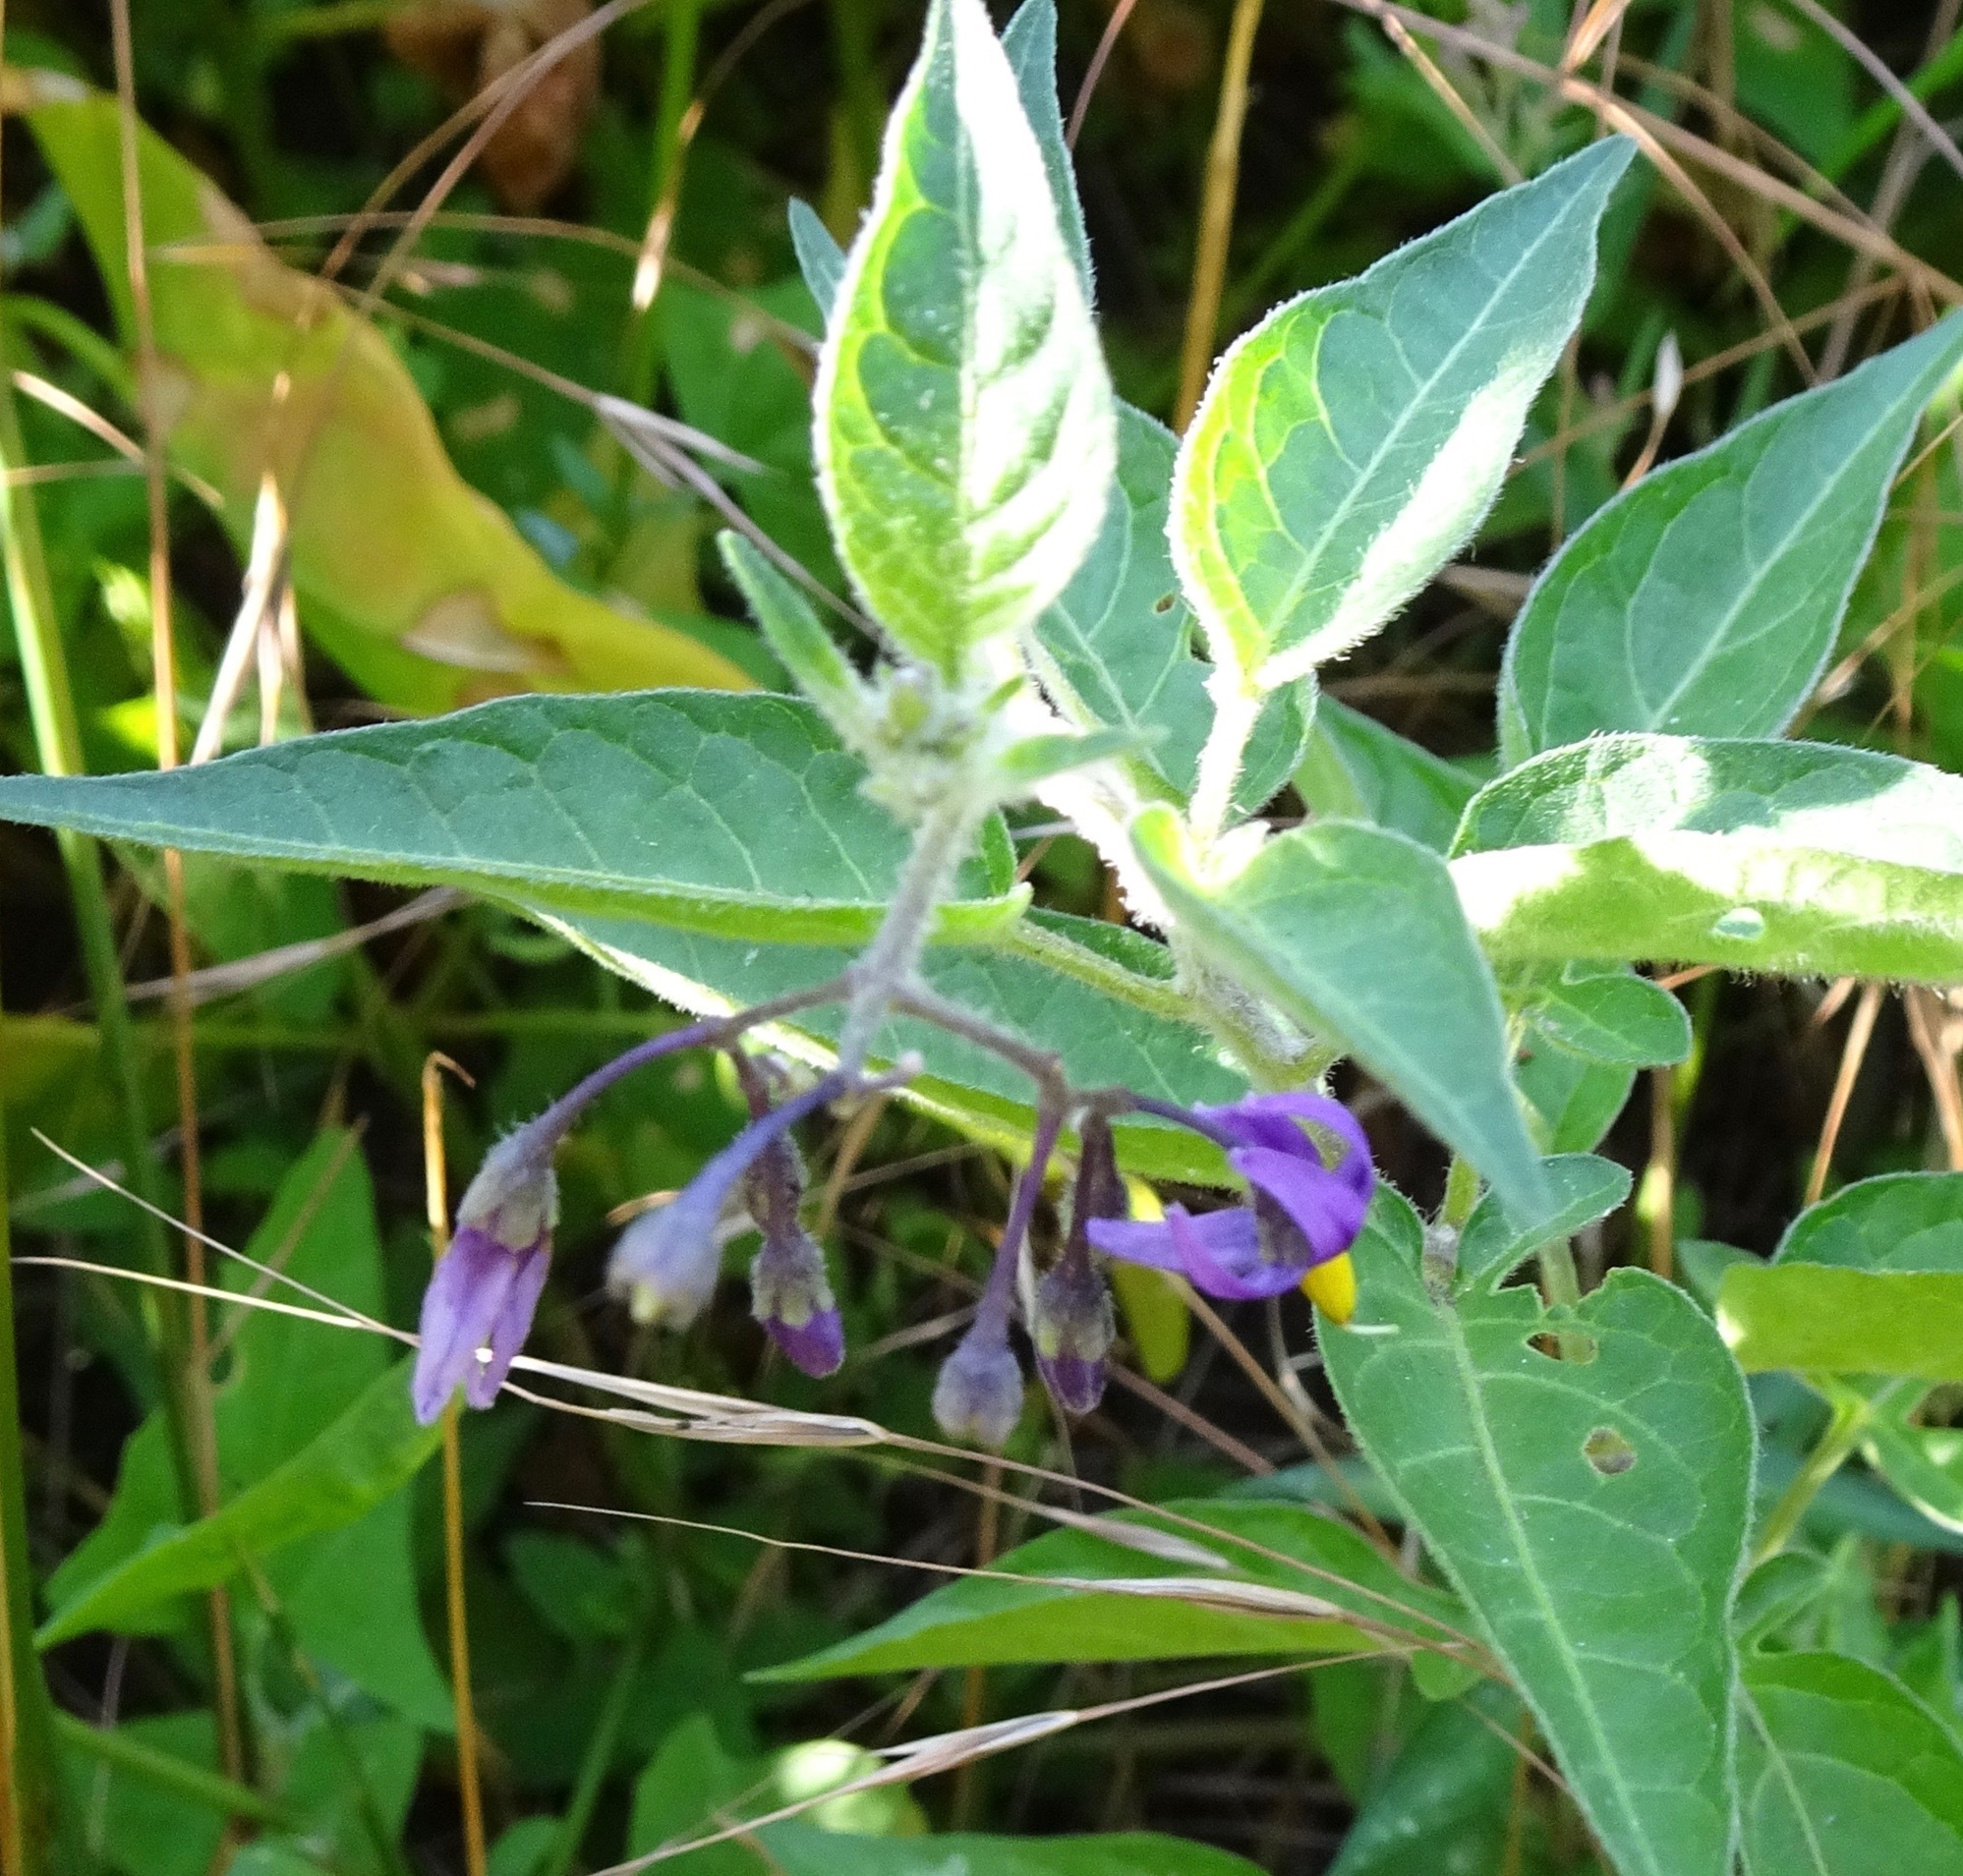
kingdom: Plantae
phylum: Tracheophyta
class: Magnoliopsida
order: Solanales
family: Solanaceae
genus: Solanum
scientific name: Solanum dulcamara
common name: Climbing nightshade
